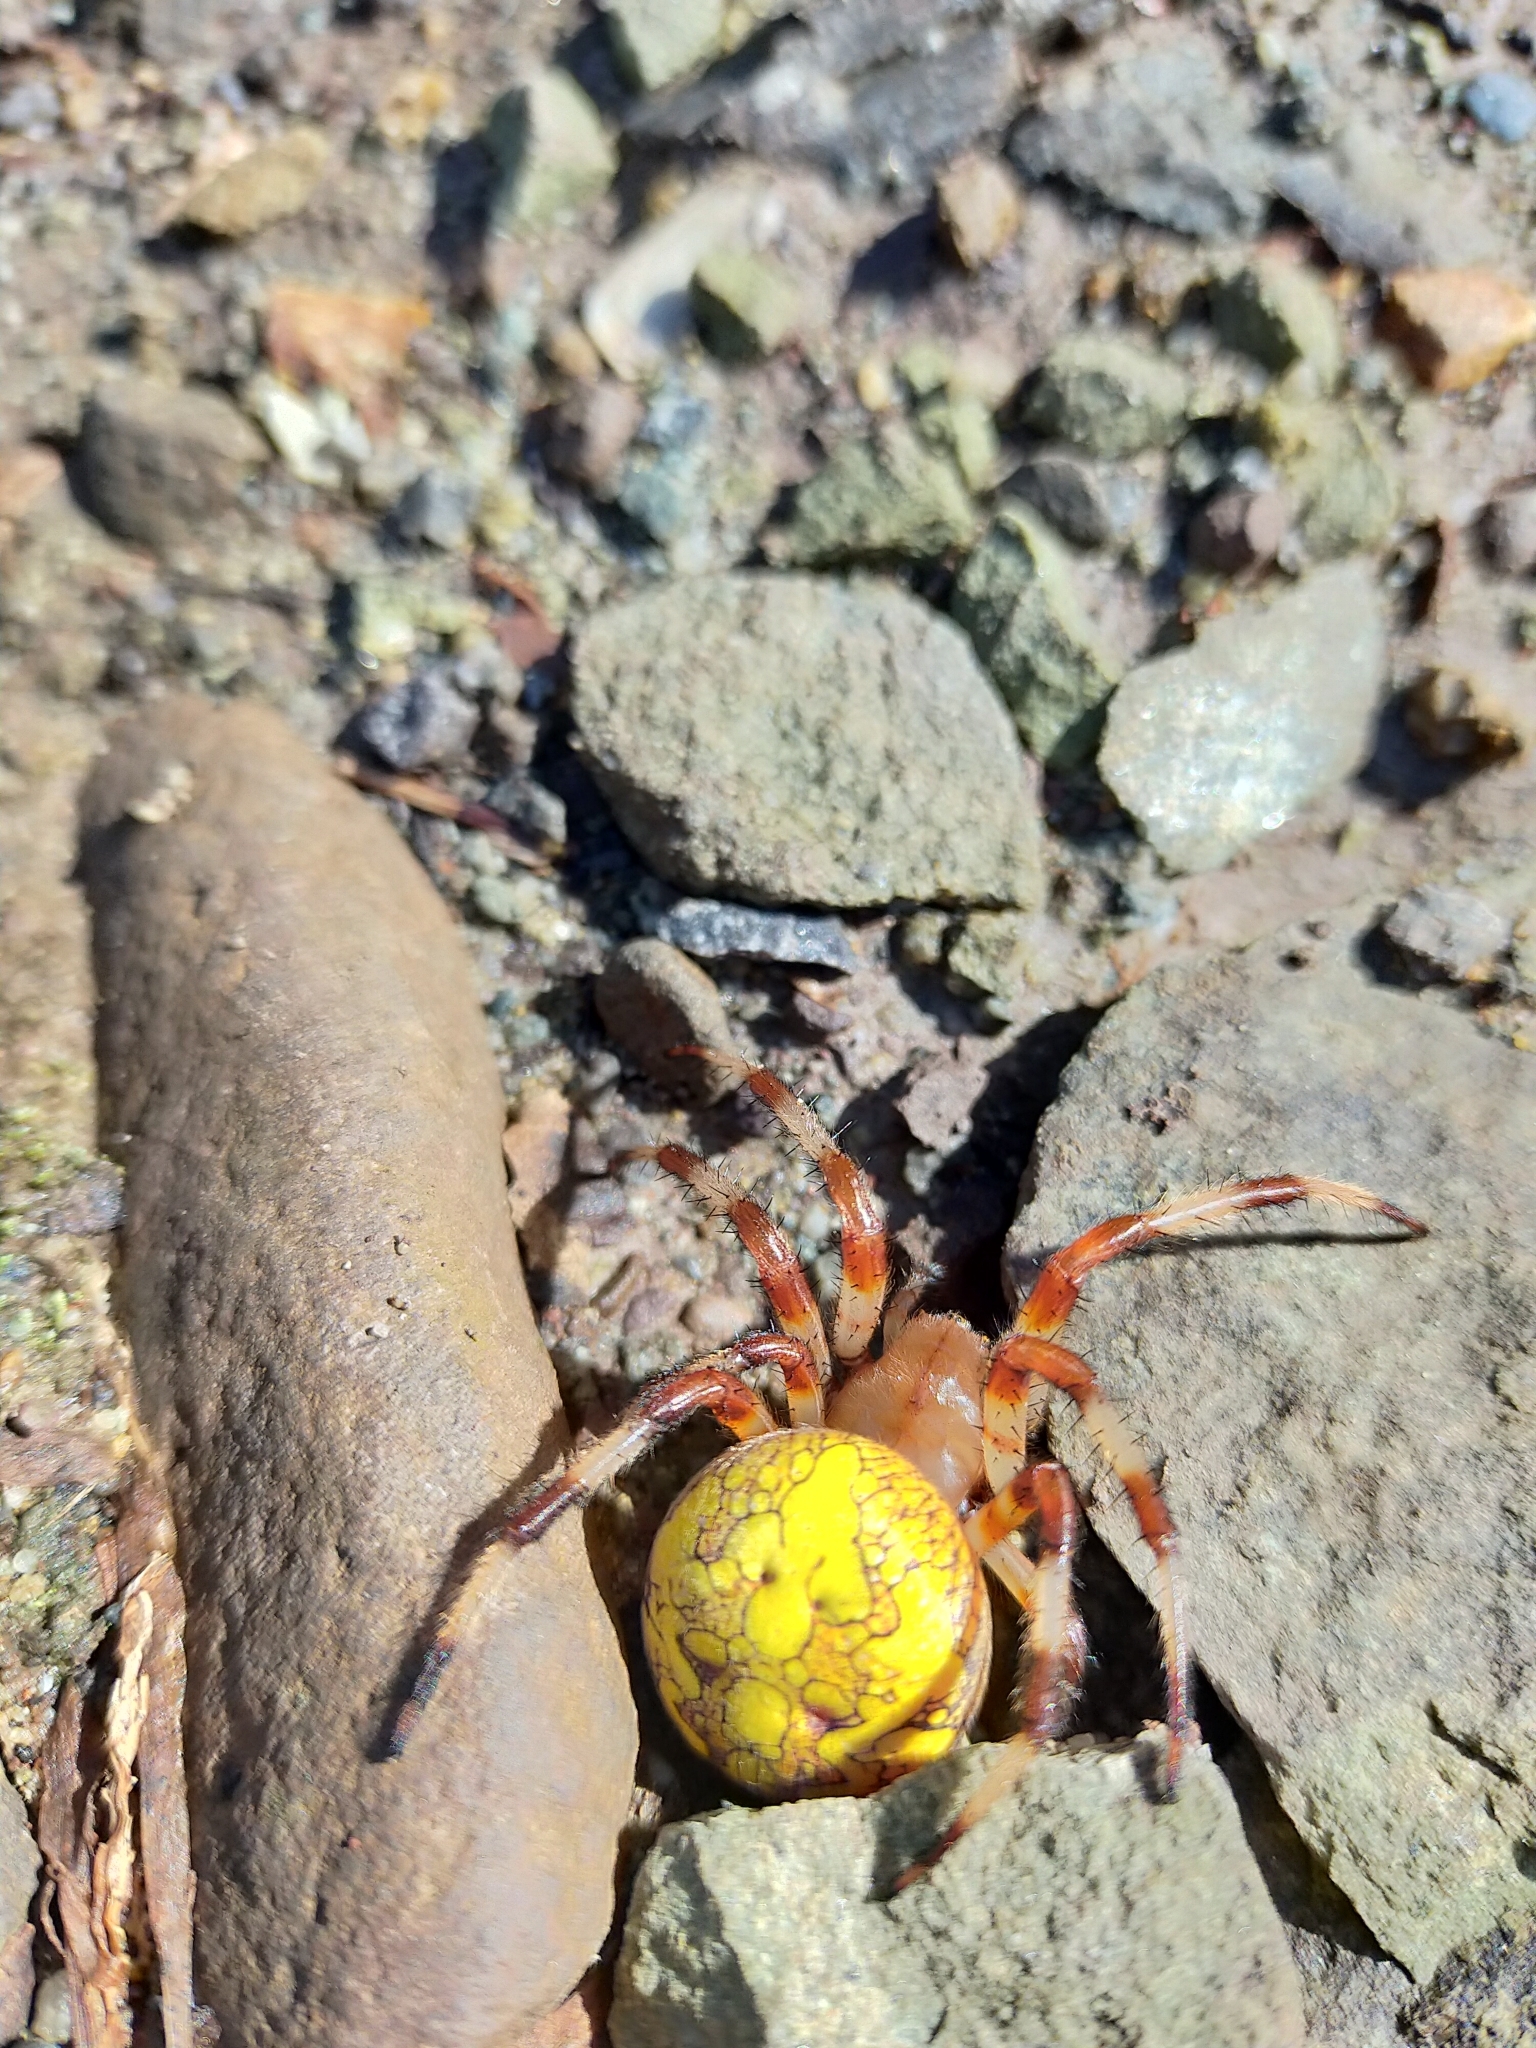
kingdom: Animalia
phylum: Arthropoda
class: Arachnida
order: Araneae
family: Araneidae
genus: Araneus
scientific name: Araneus marmoreus
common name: Marbled orbweaver
